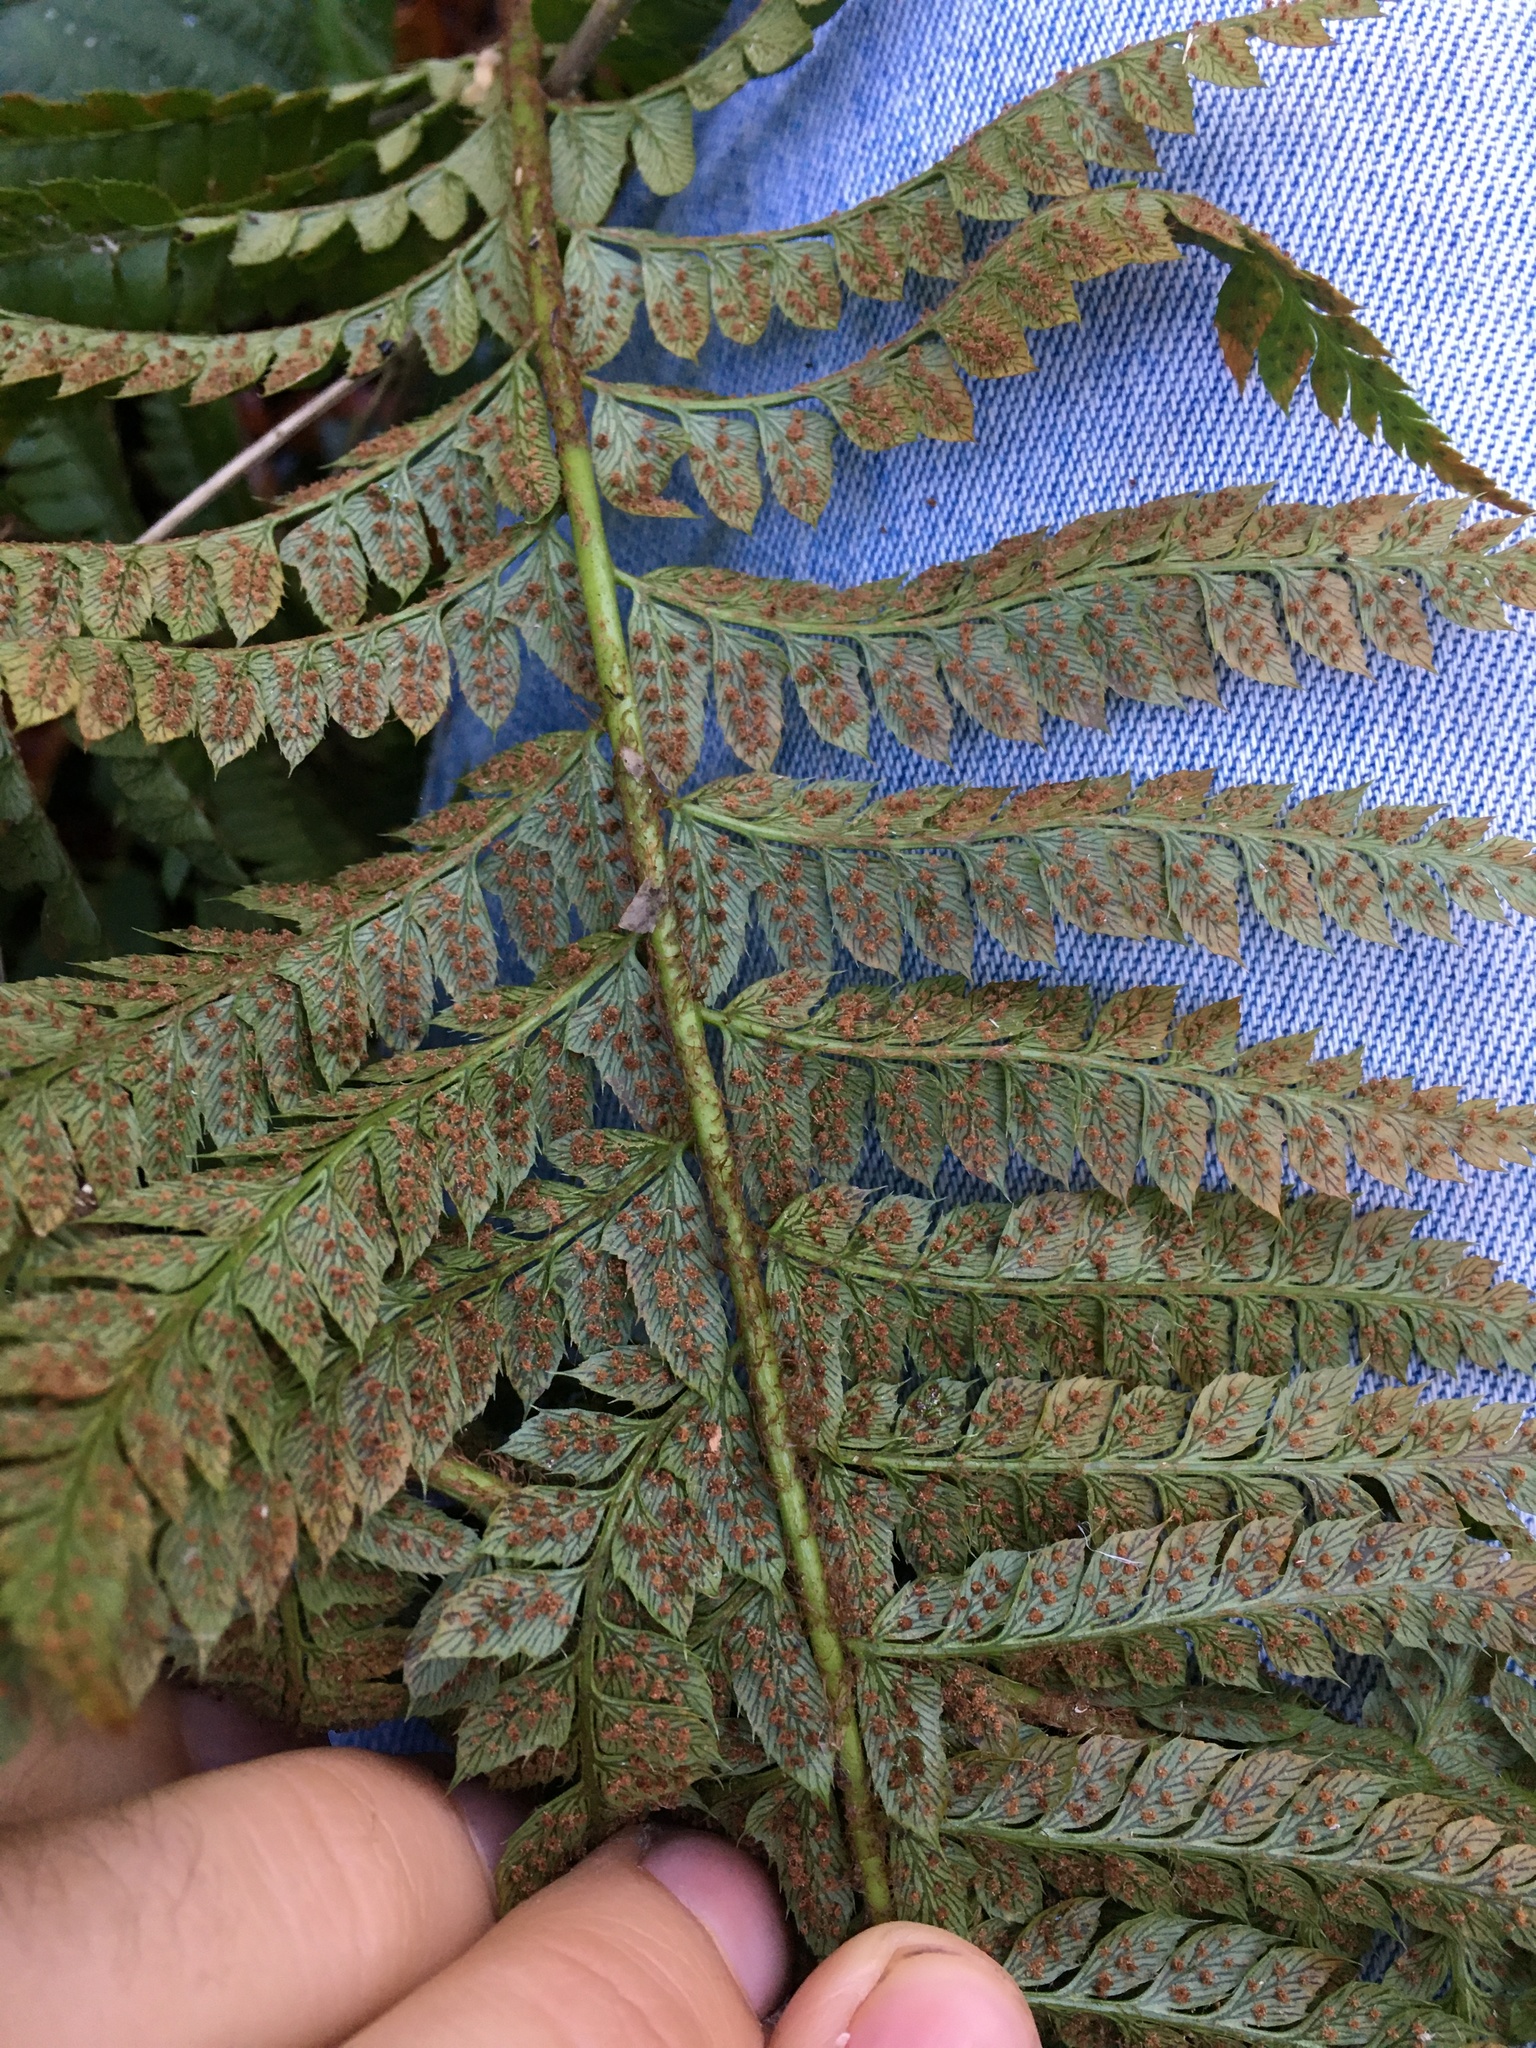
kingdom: Plantae
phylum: Tracheophyta
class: Polypodiopsida
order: Polypodiales
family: Dryopteridaceae
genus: Polystichum
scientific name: Polystichum aculeatum
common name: Hard shield-fern
